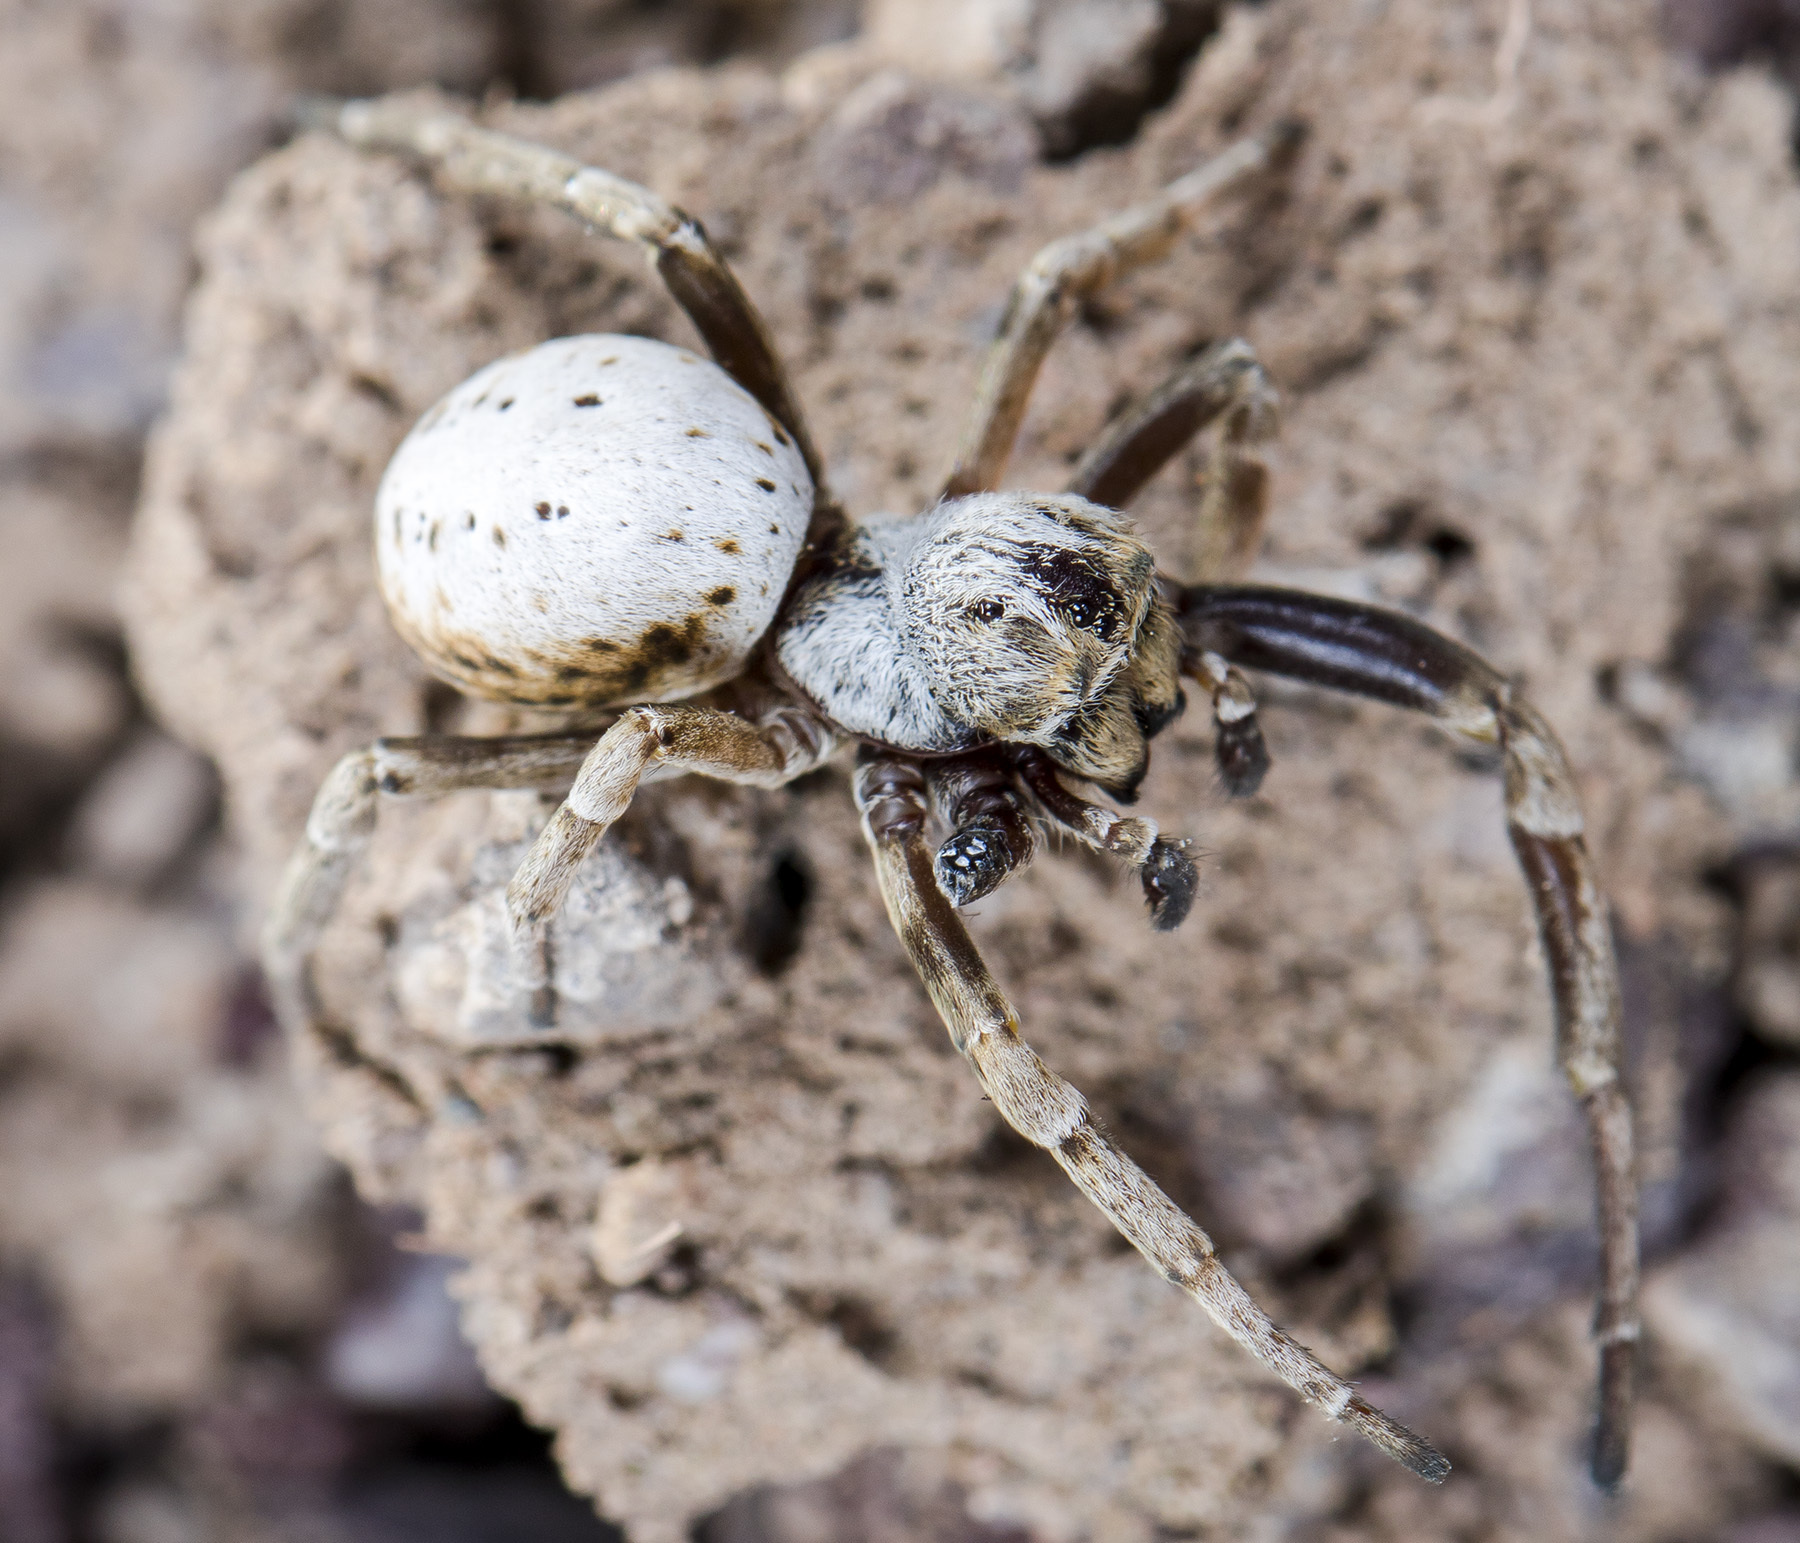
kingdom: Animalia
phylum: Arthropoda
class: Arachnida
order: Araneae
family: Eresidae
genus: Stegodyphus
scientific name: Stegodyphus lineatus
